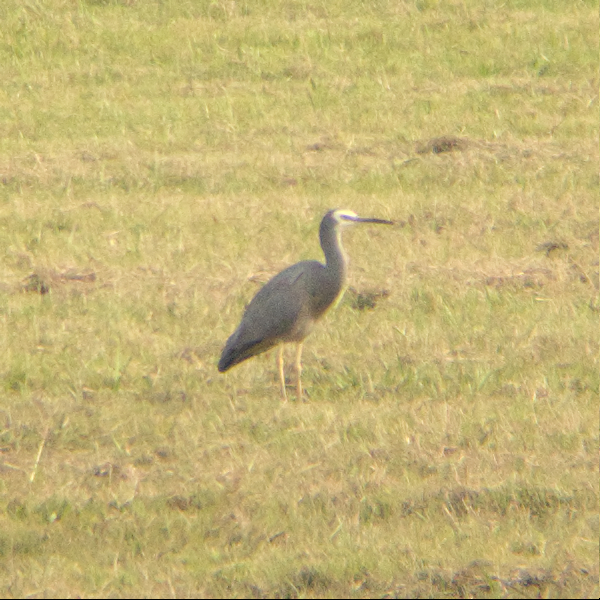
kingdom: Animalia
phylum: Chordata
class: Aves
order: Pelecaniformes
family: Ardeidae
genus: Egretta
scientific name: Egretta novaehollandiae
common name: White-faced heron
